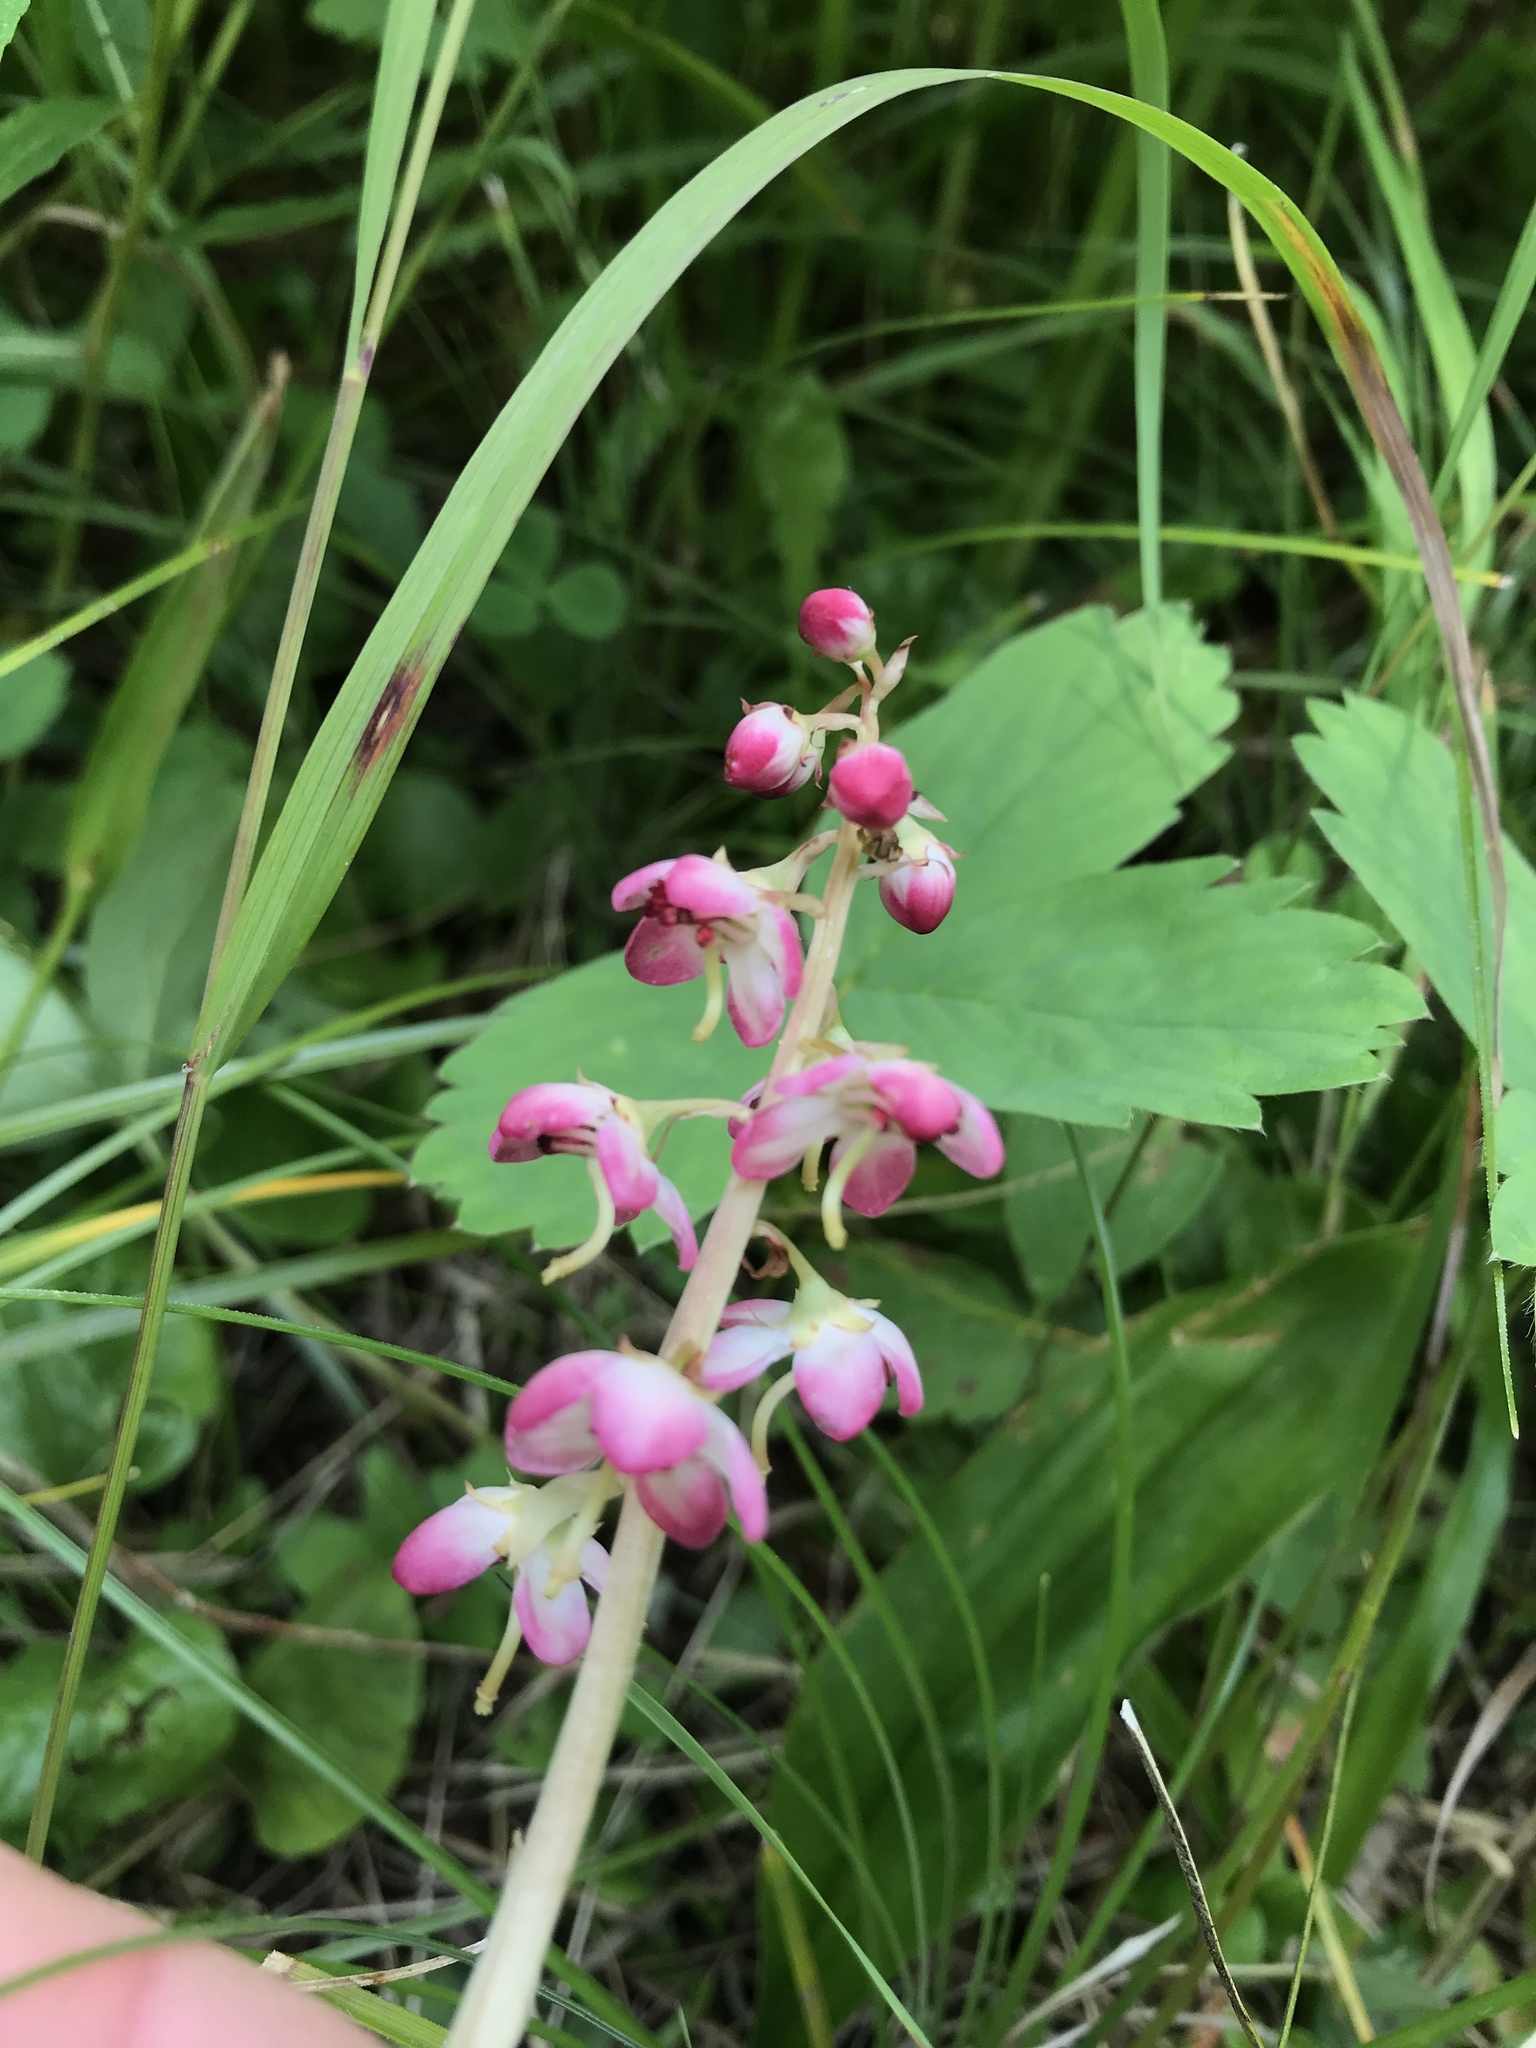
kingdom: Plantae
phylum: Tracheophyta
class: Magnoliopsida
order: Ericales
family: Ericaceae
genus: Pyrola
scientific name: Pyrola asarifolia
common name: Bog wintergreen
